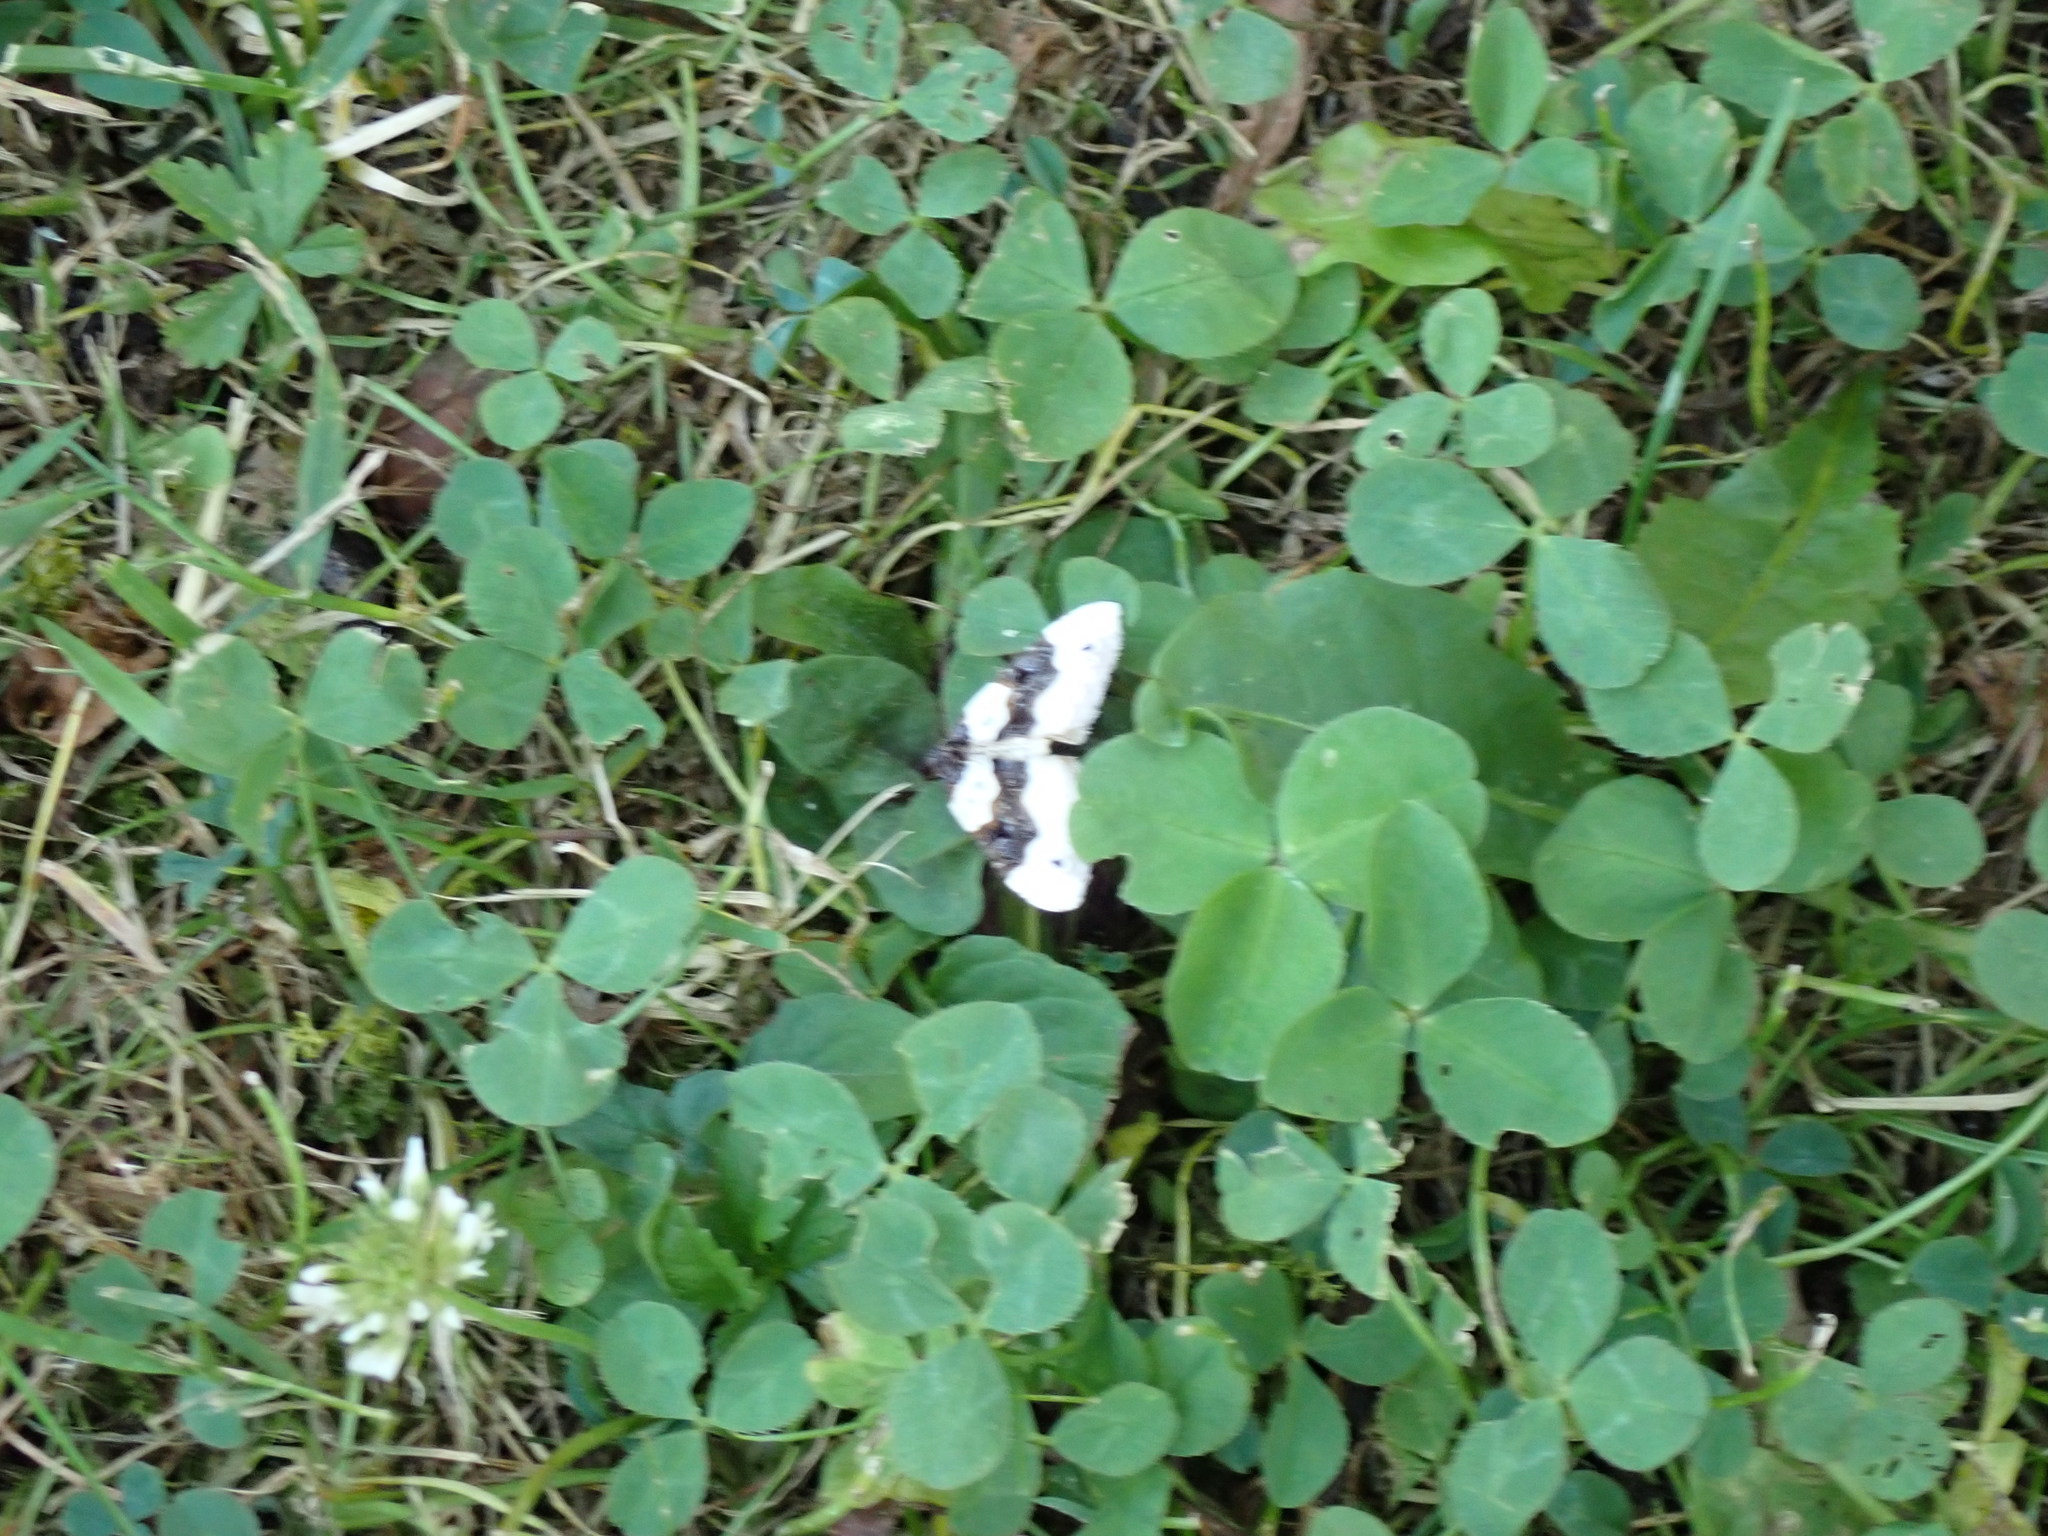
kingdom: Animalia
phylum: Arthropoda
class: Insecta
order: Lepidoptera
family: Geometridae
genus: Cosmorhoe
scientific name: Cosmorhoe ocellata
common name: Purple bar
